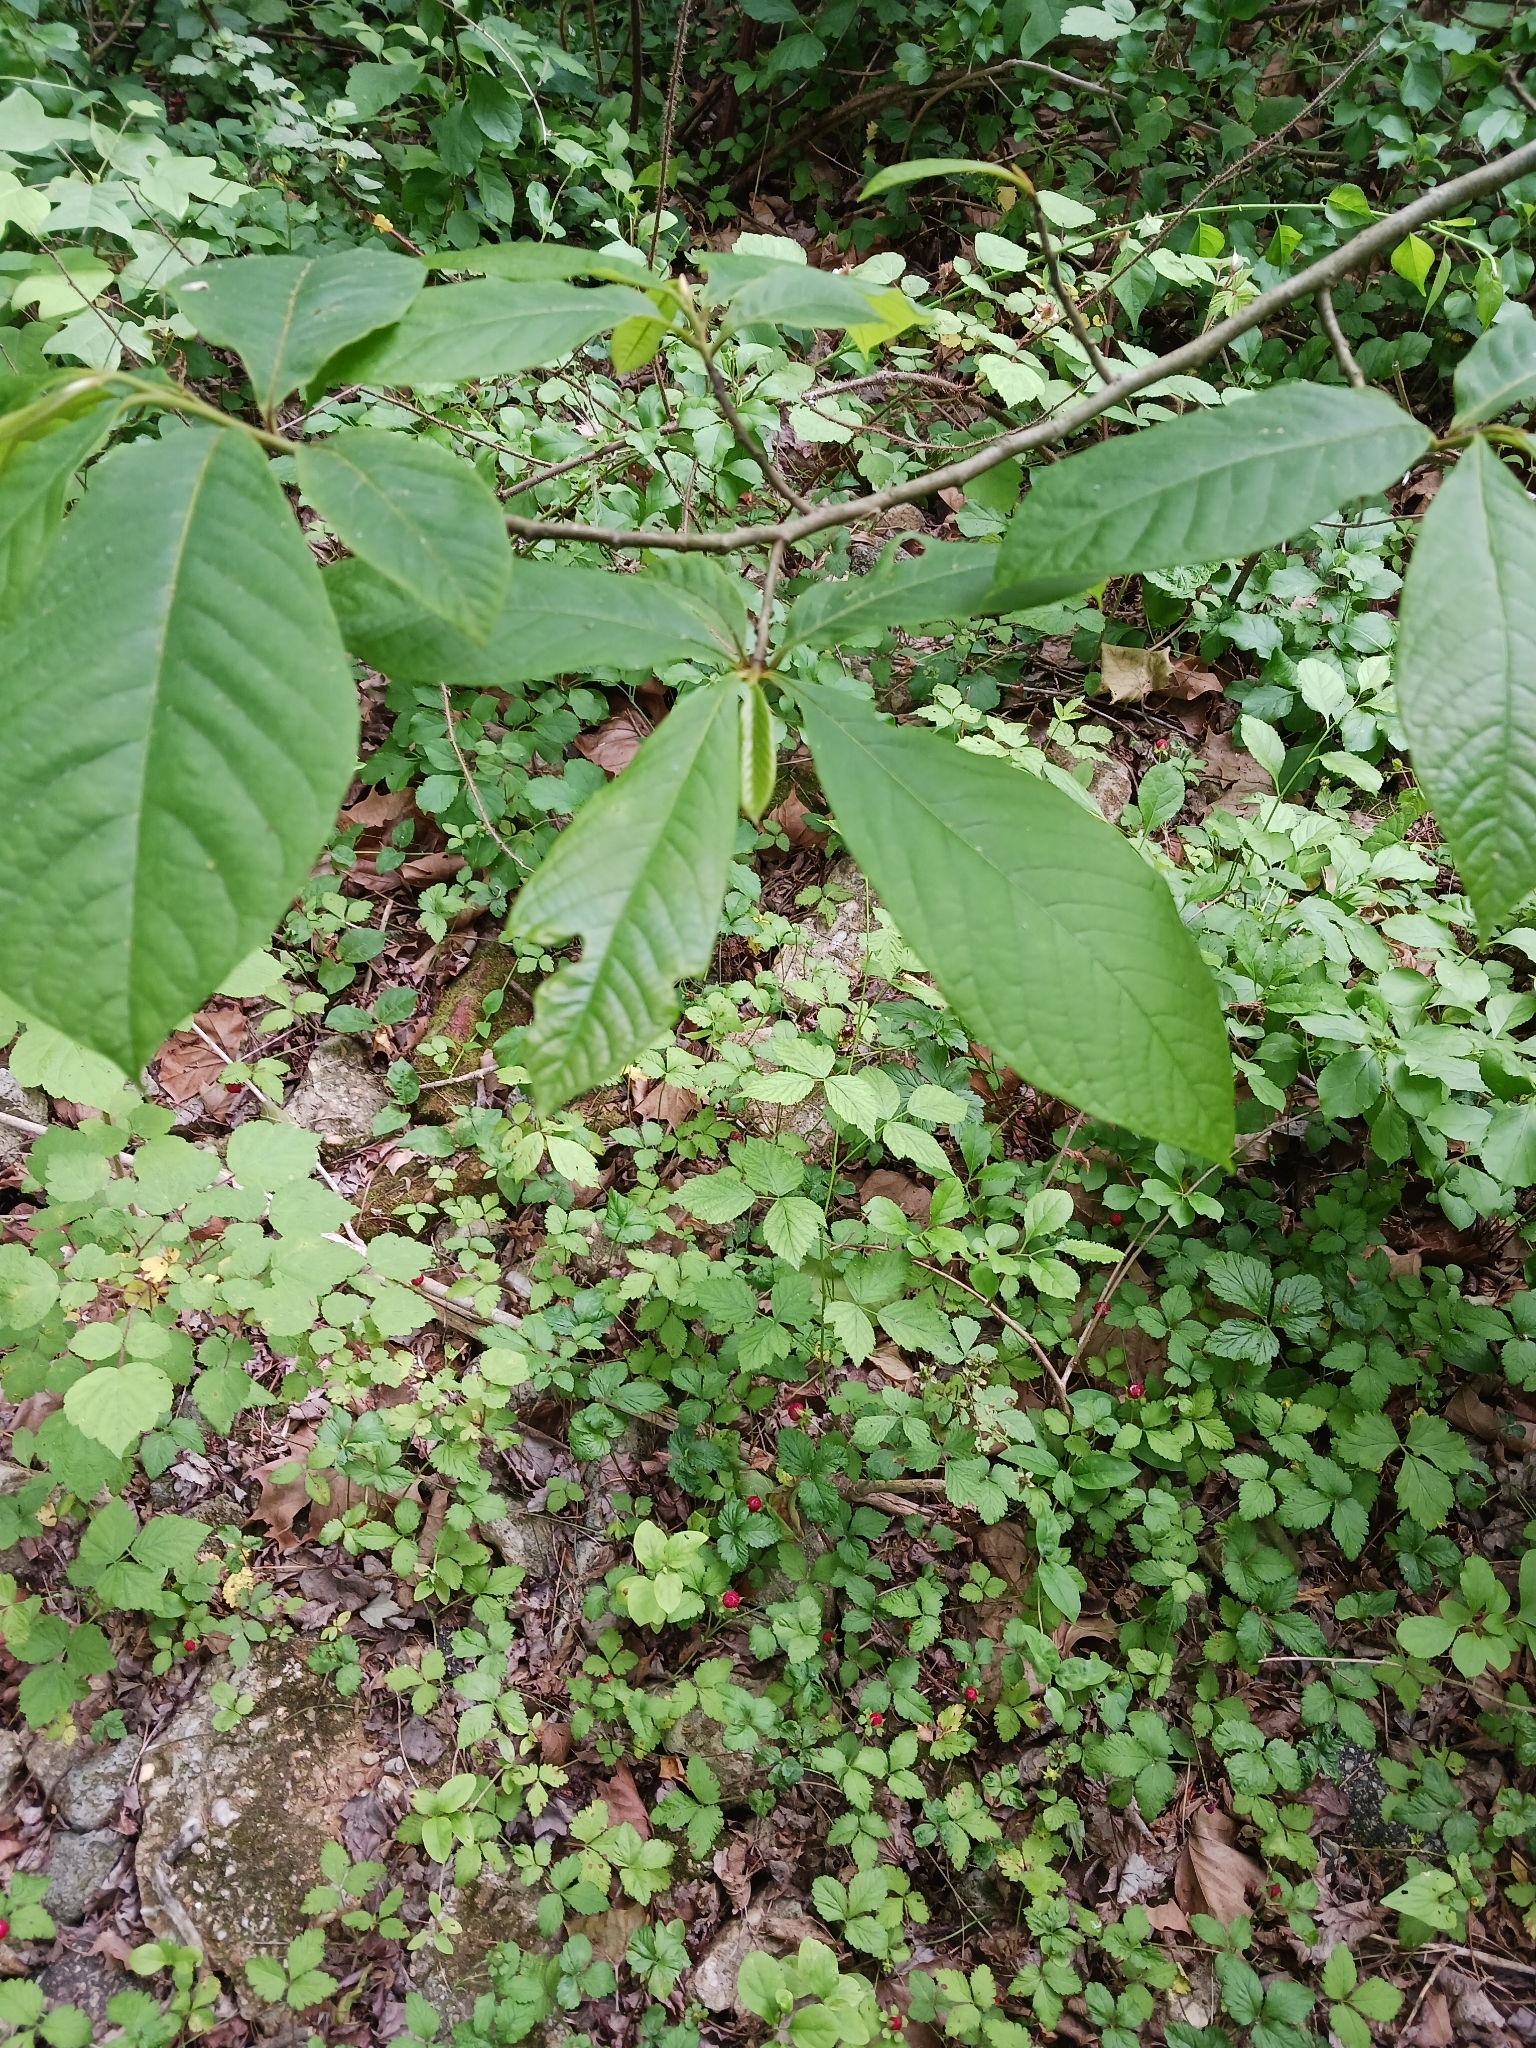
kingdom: Plantae
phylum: Tracheophyta
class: Magnoliopsida
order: Magnoliales
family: Annonaceae
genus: Asimina
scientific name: Asimina triloba
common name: Dog-banana
